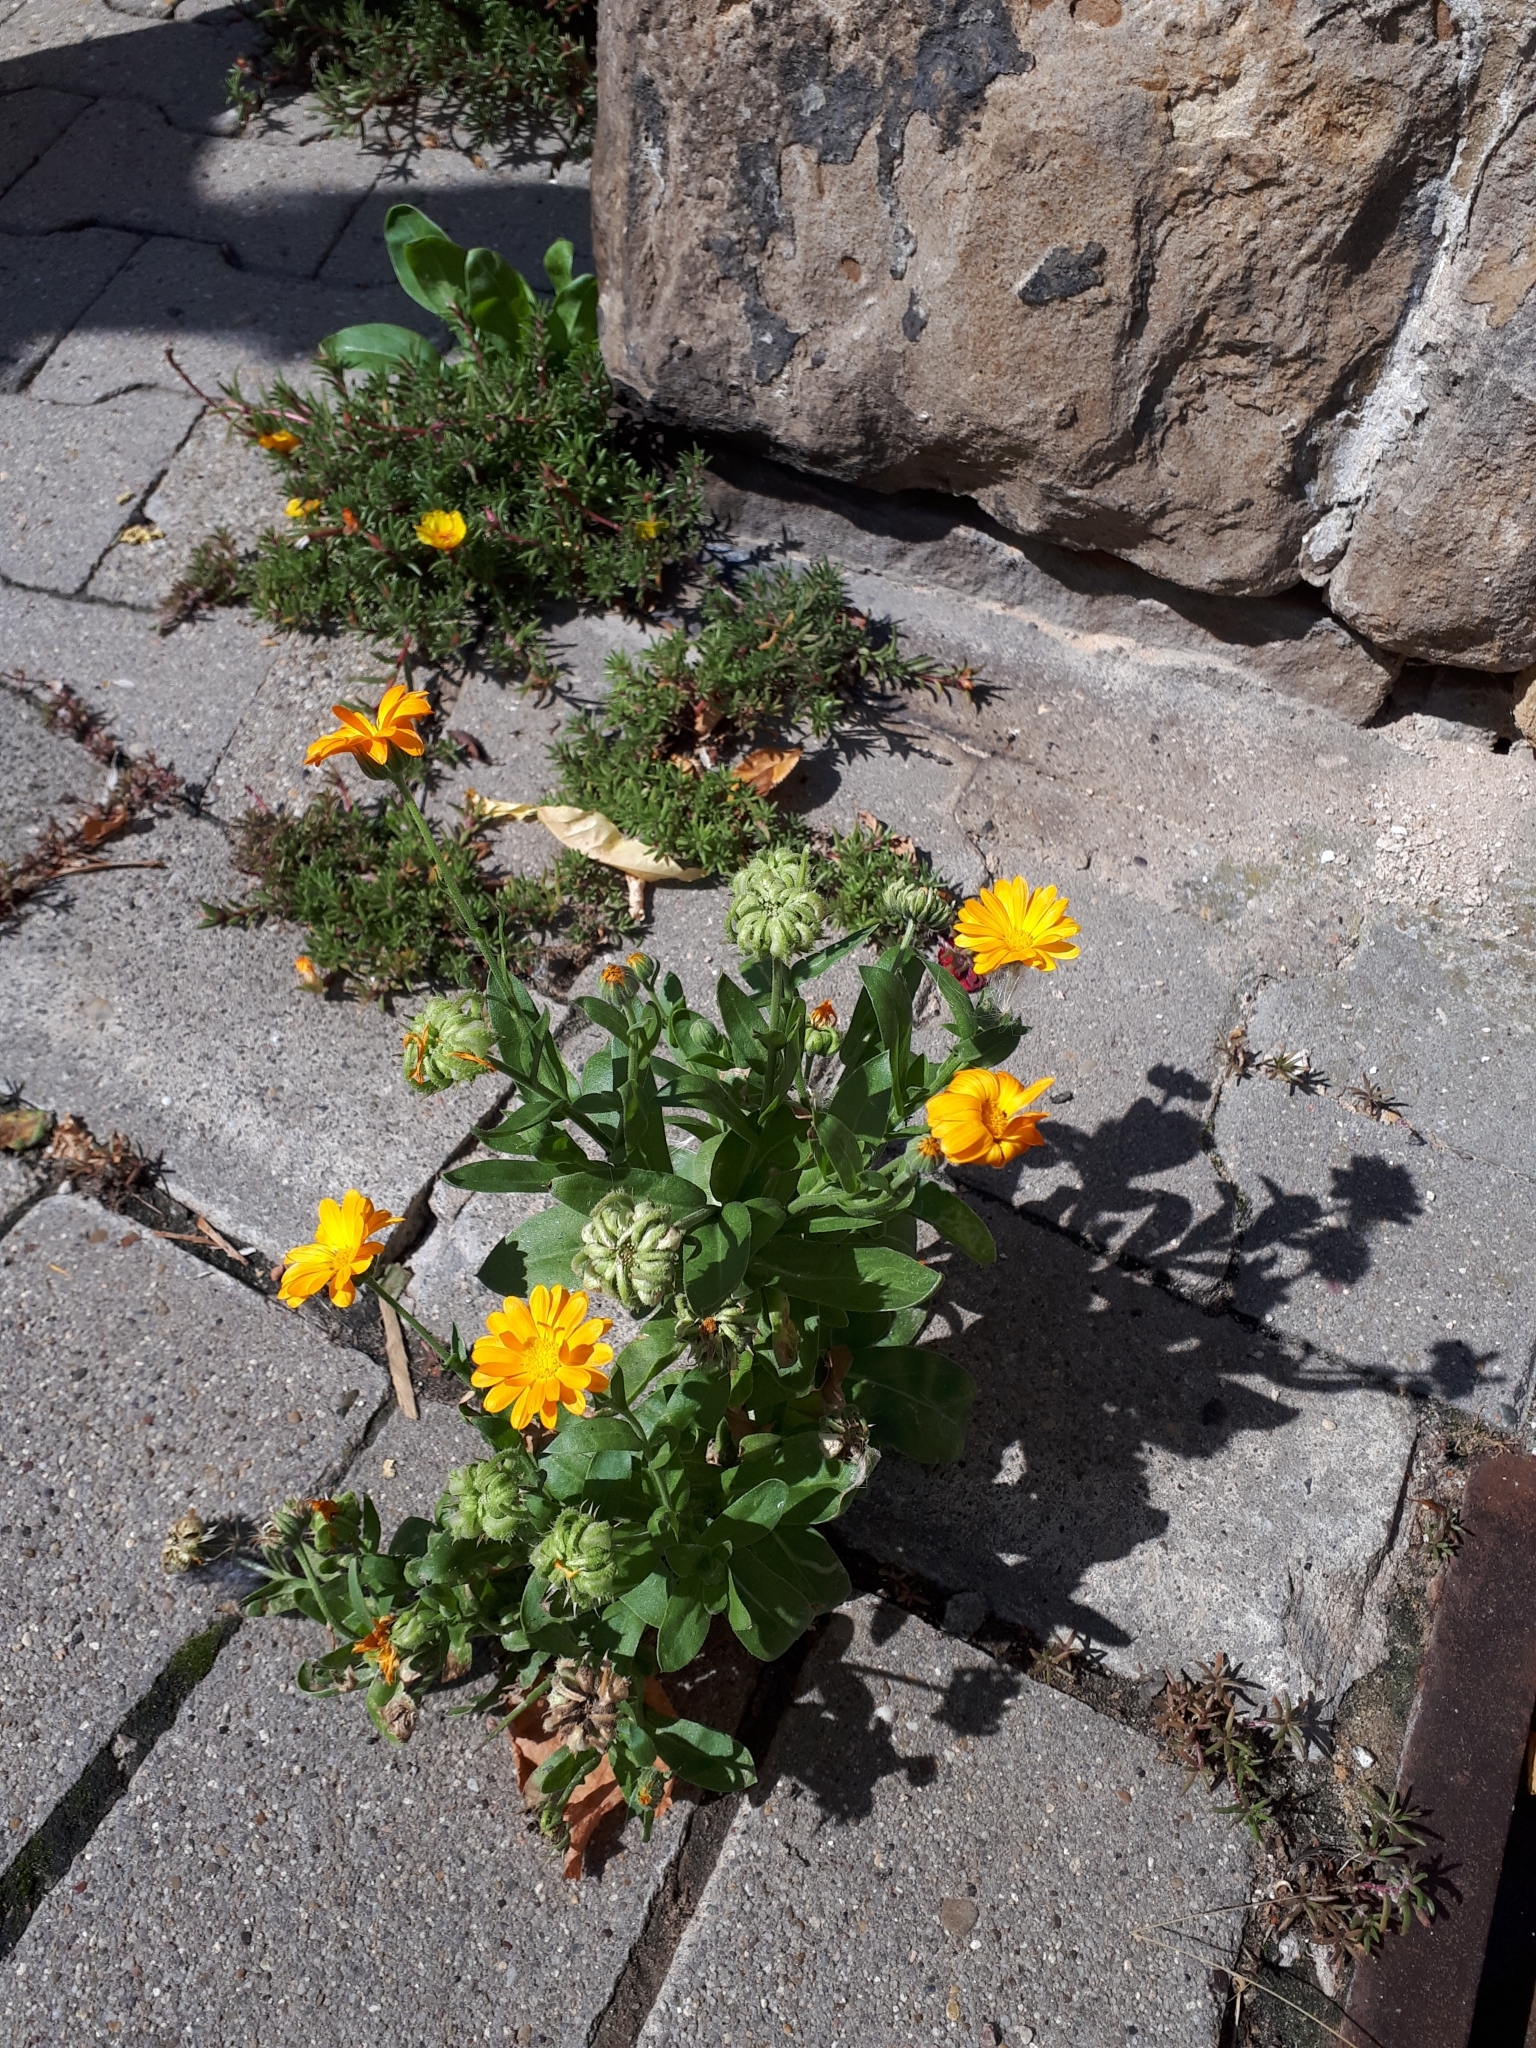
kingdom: Plantae
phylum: Tracheophyta
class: Magnoliopsida
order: Asterales
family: Asteraceae
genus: Calendula
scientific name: Calendula officinalis
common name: Pot marigold
